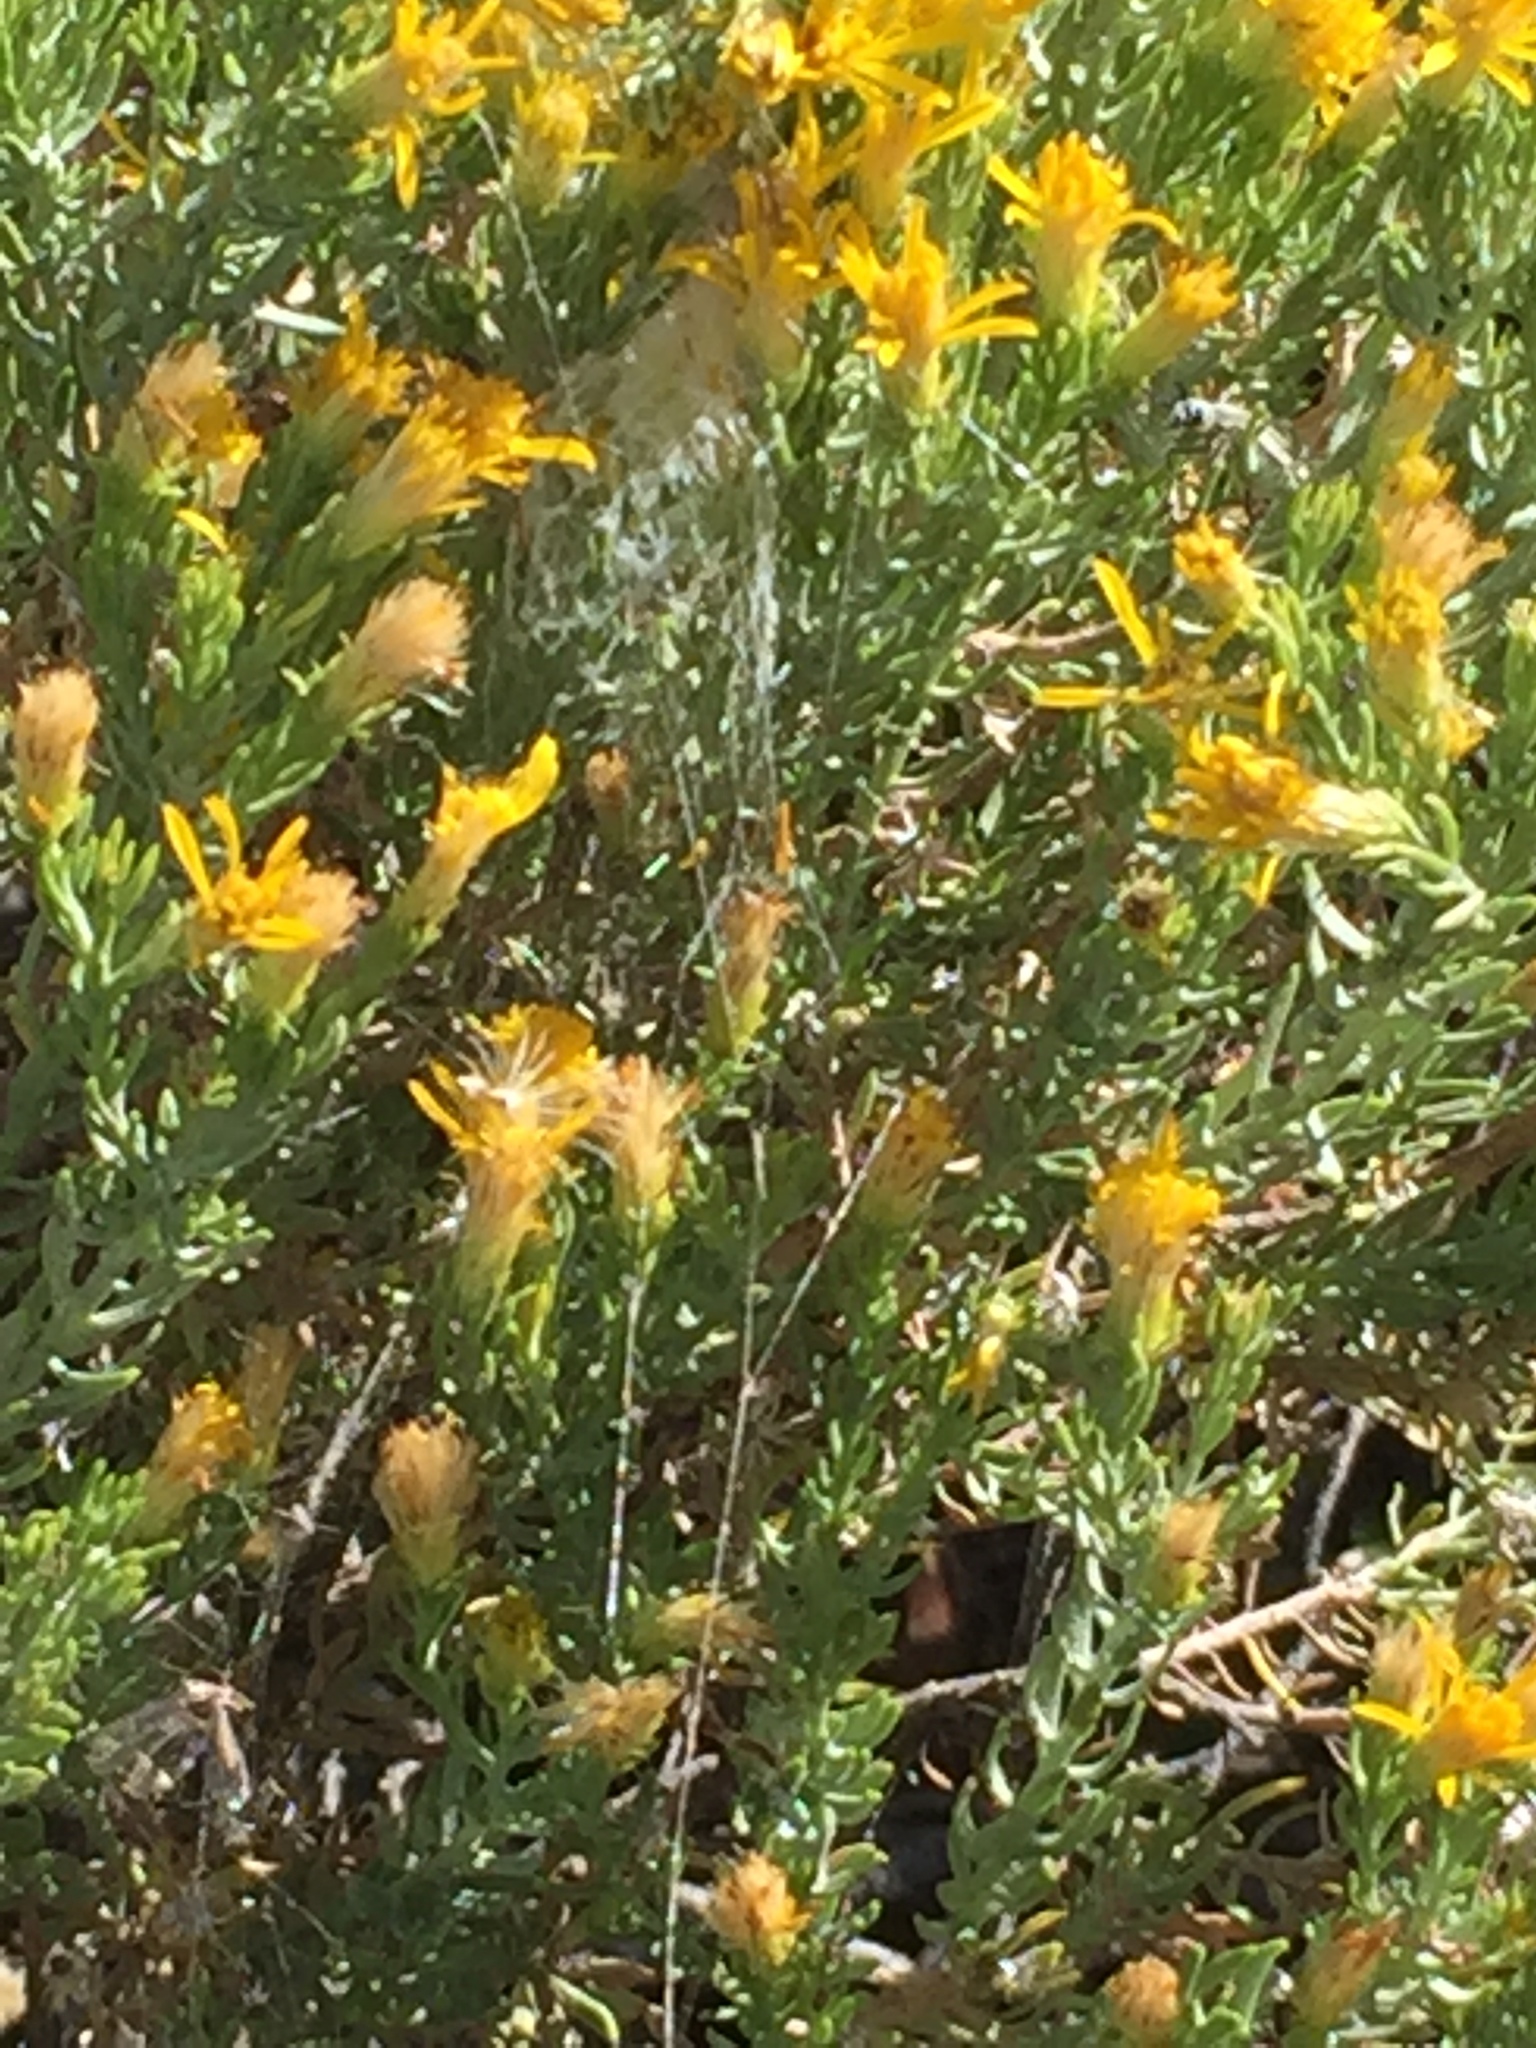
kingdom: Plantae
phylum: Tracheophyta
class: Magnoliopsida
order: Asterales
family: Asteraceae
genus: Ericameria
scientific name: Ericameria laricifolia
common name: Turpentine-bush
